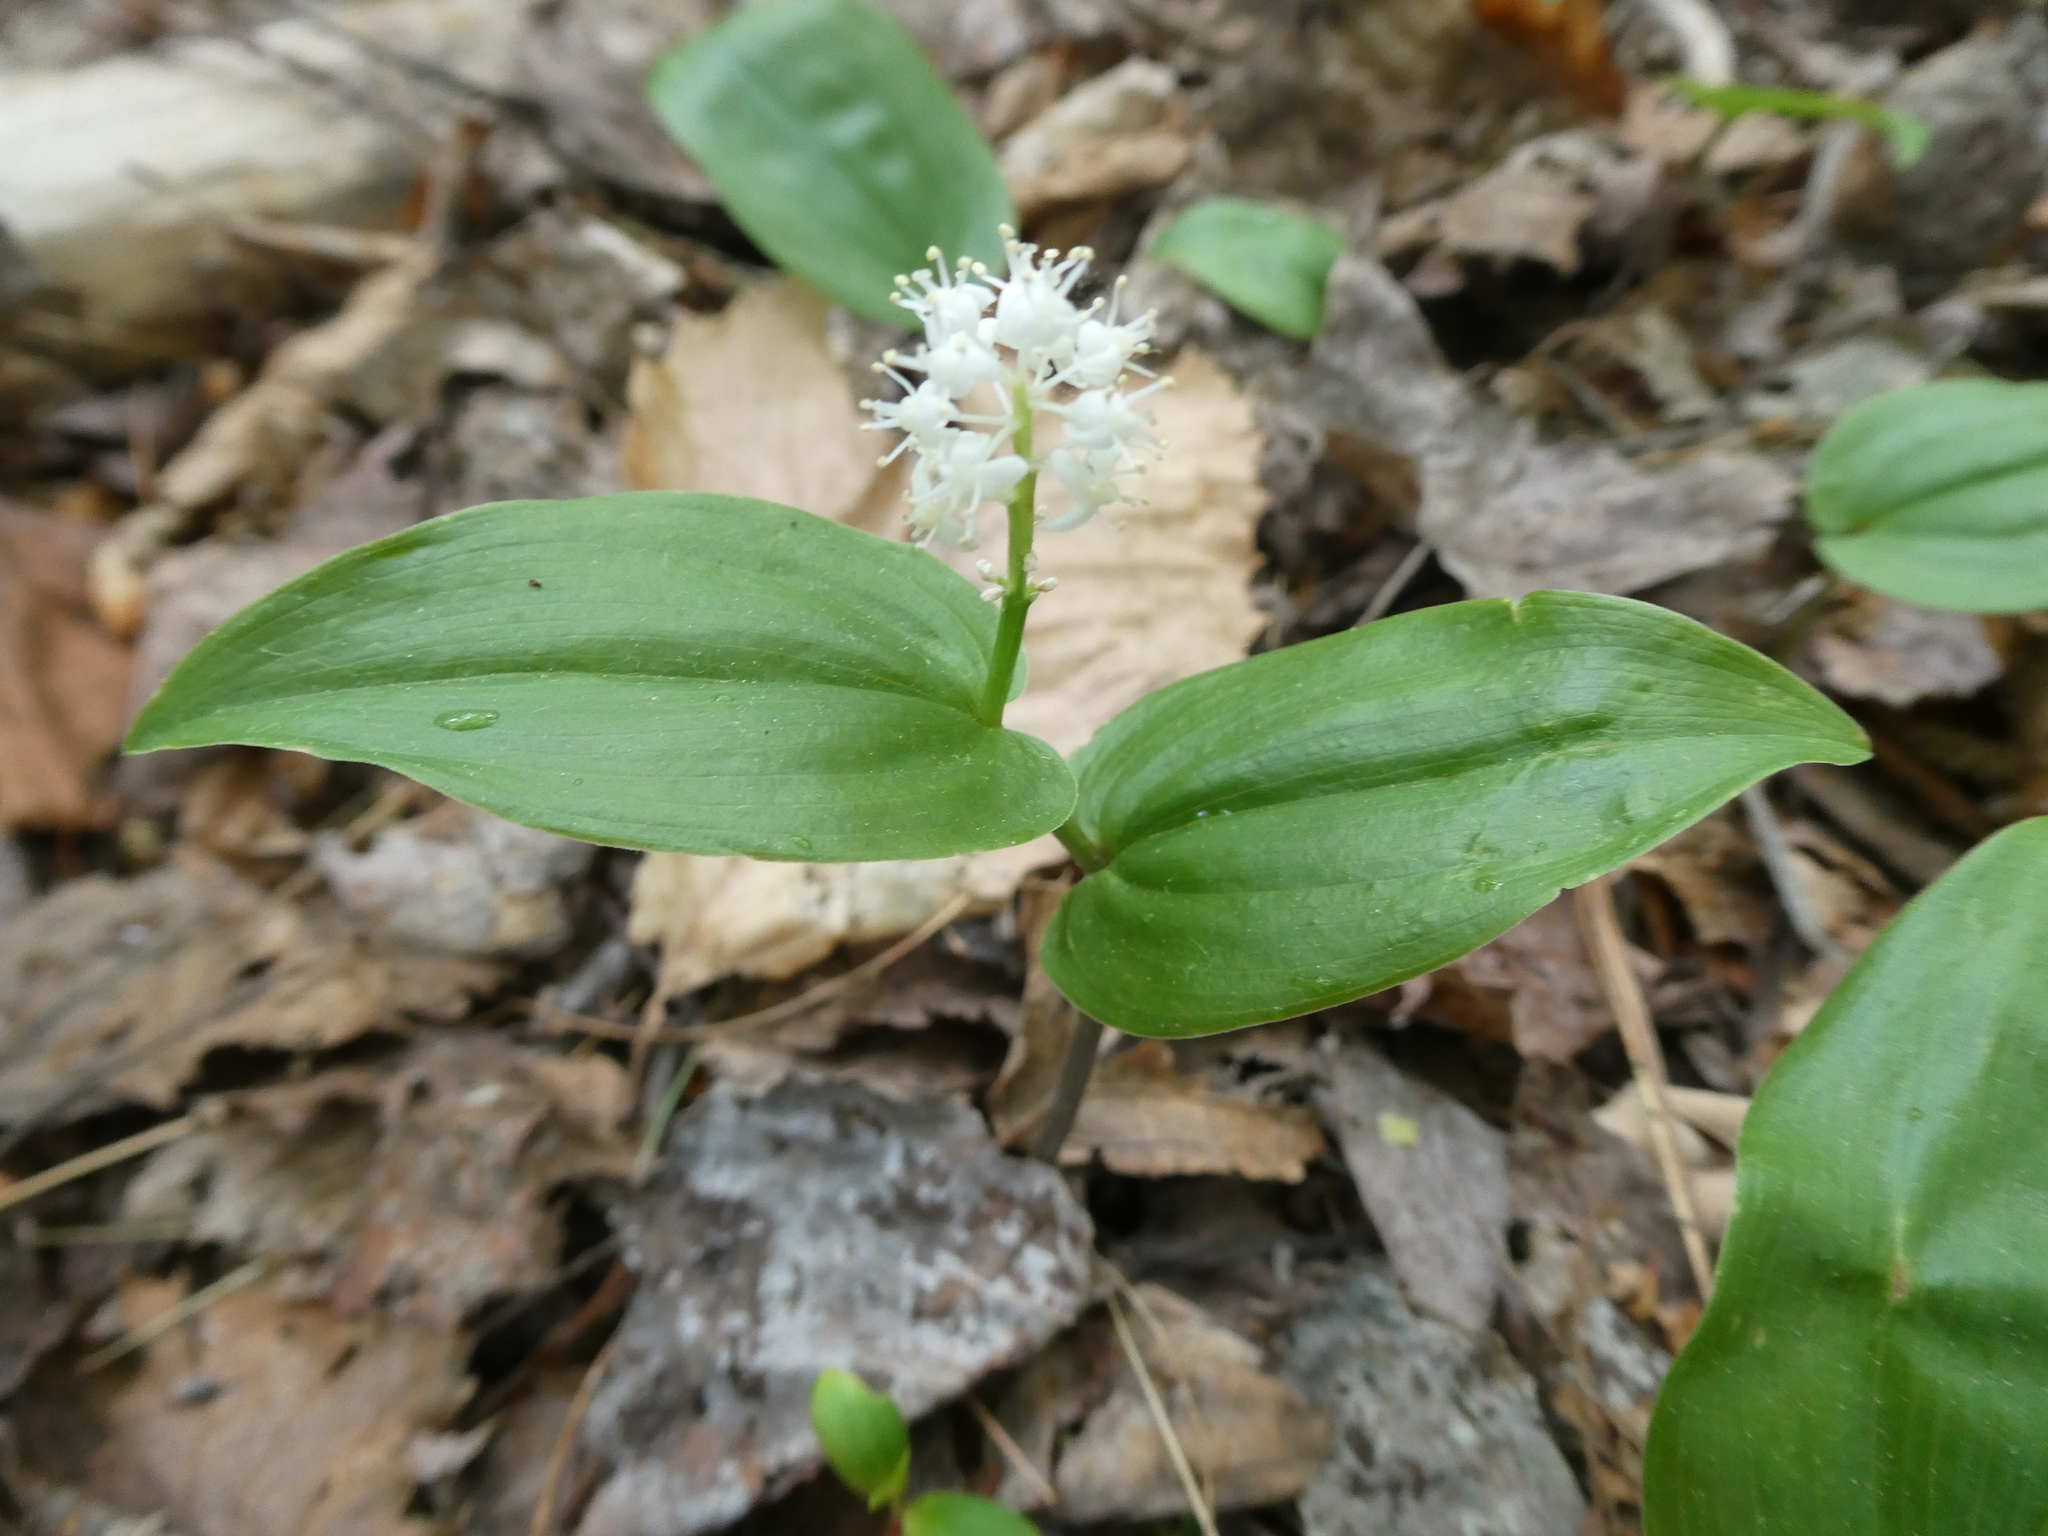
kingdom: Plantae
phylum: Tracheophyta
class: Liliopsida
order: Asparagales
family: Asparagaceae
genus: Maianthemum
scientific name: Maianthemum canadense
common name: False lily-of-the-valley
